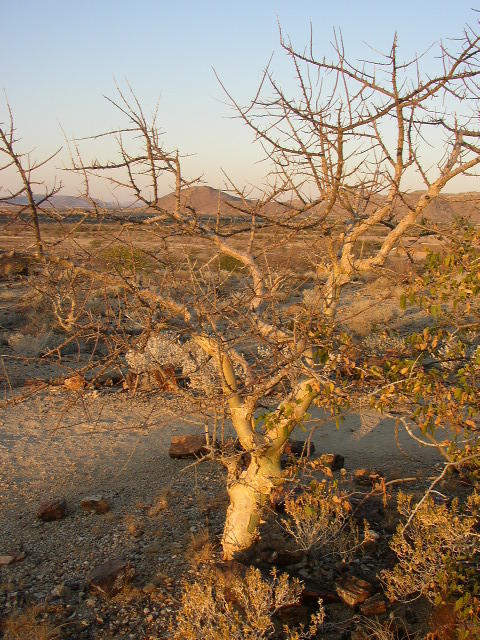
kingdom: Plantae
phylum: Tracheophyta
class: Magnoliopsida
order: Sapindales
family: Burseraceae
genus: Commiphora
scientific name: Commiphora tenuipetiolata
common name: Satin-bark corkwood
